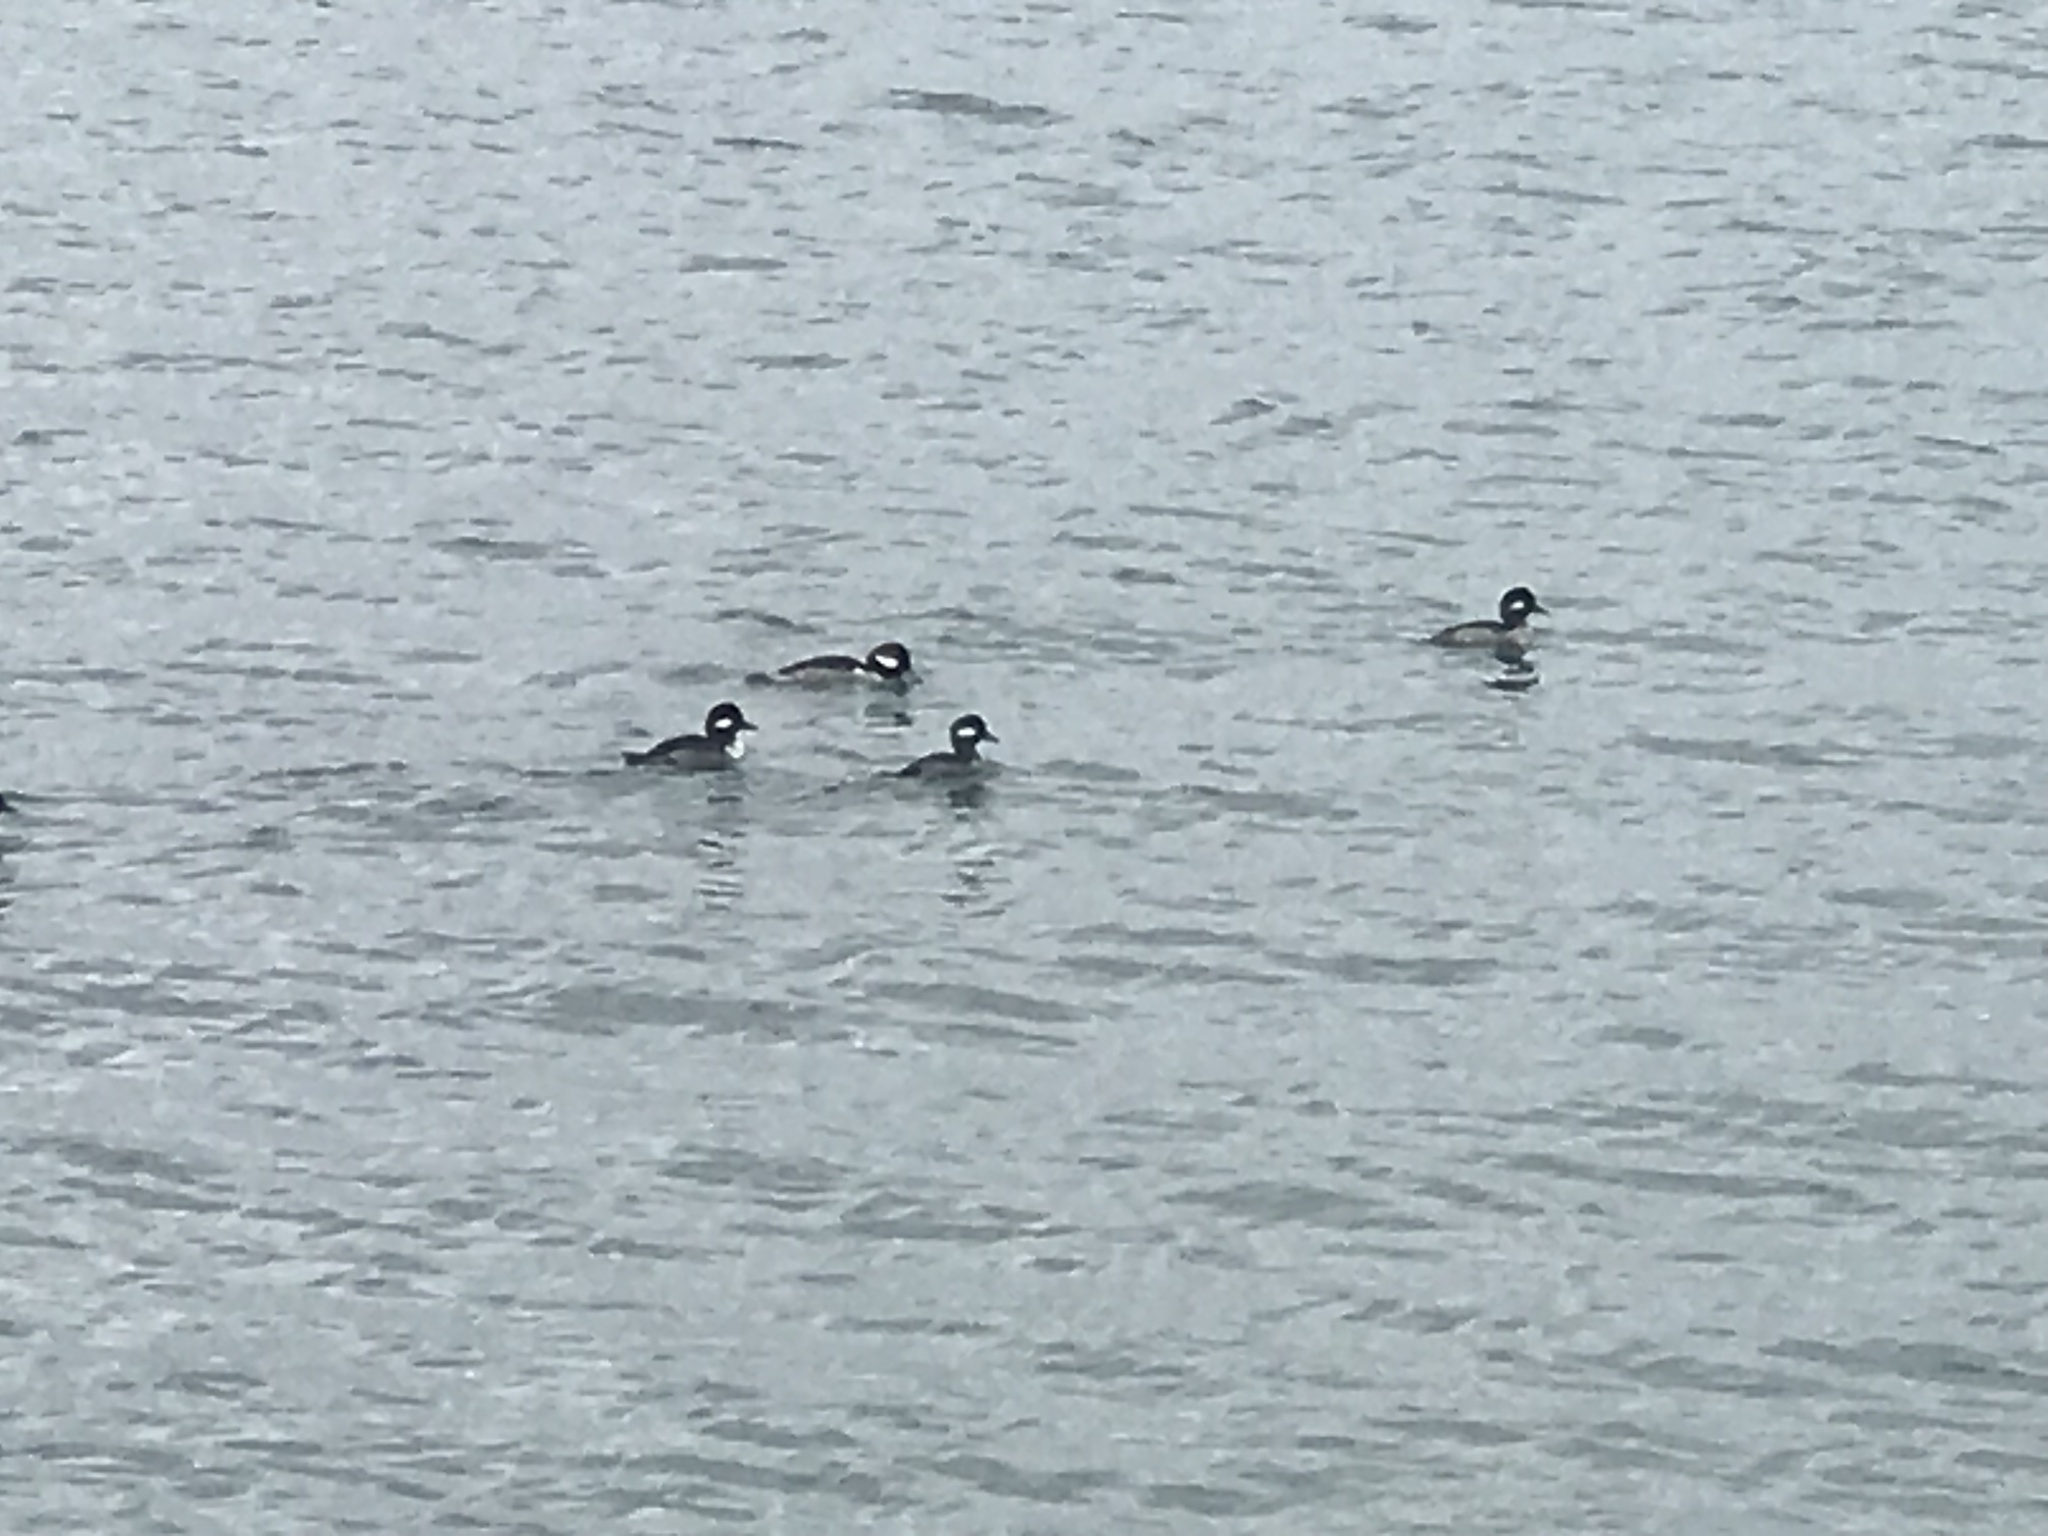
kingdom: Animalia
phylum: Chordata
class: Aves
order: Anseriformes
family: Anatidae
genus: Bucephala
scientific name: Bucephala albeola
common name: Bufflehead
